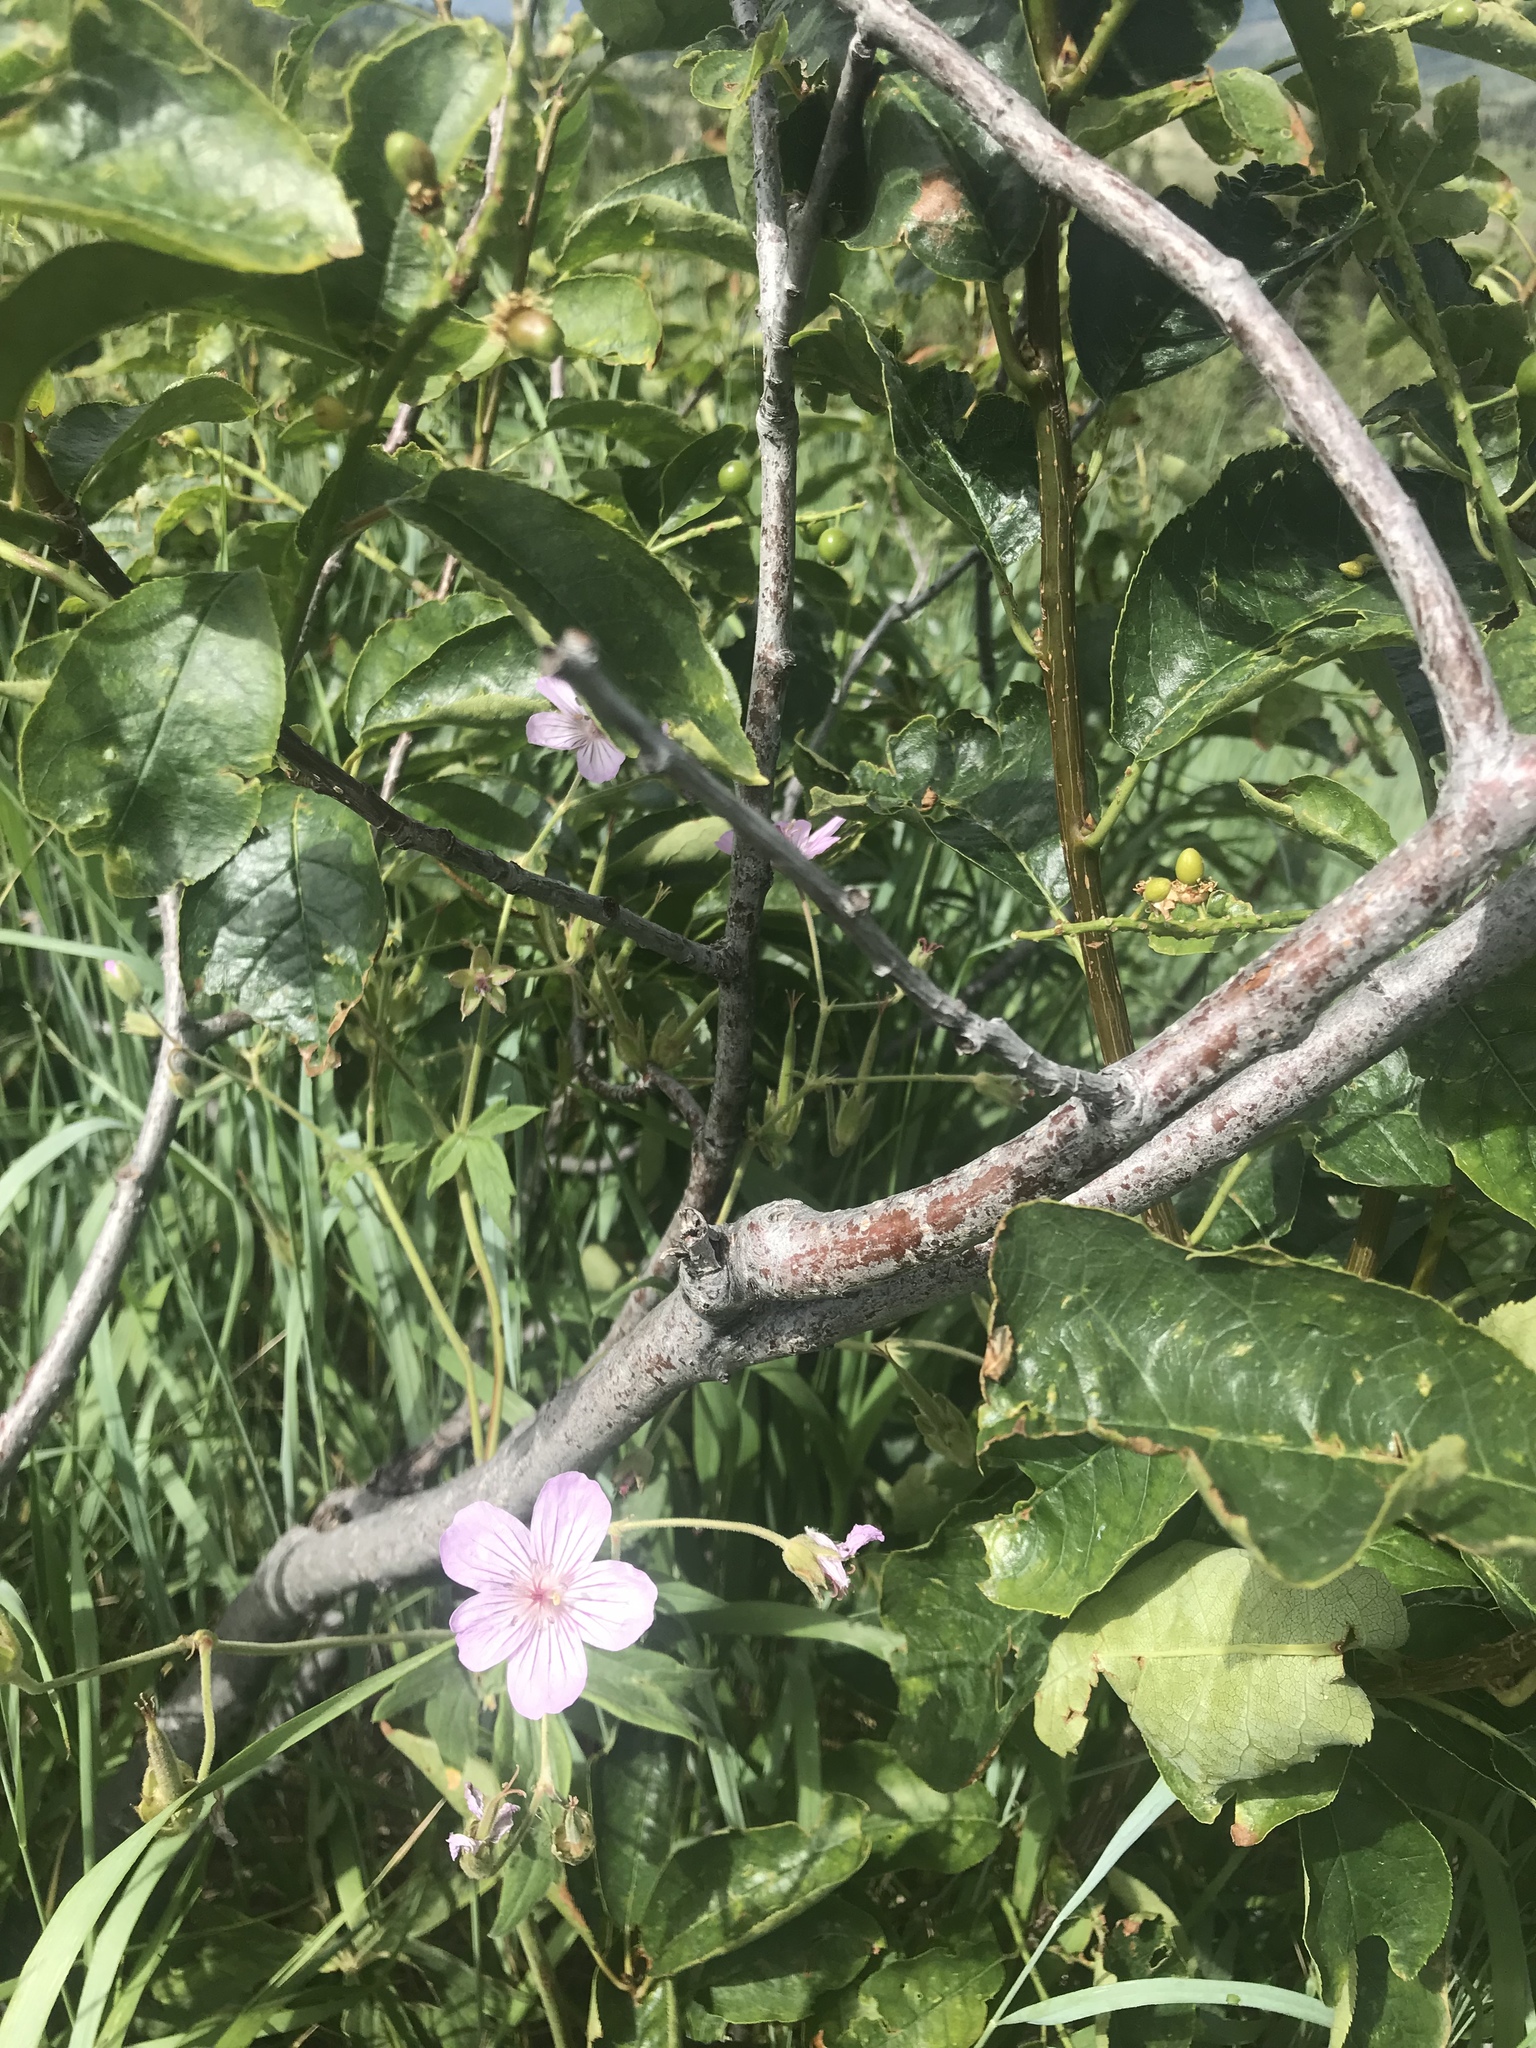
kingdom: Plantae
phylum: Tracheophyta
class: Magnoliopsida
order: Geraniales
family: Geraniaceae
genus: Geranium
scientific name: Geranium richardsonii
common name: Richardson's crane's-bill
